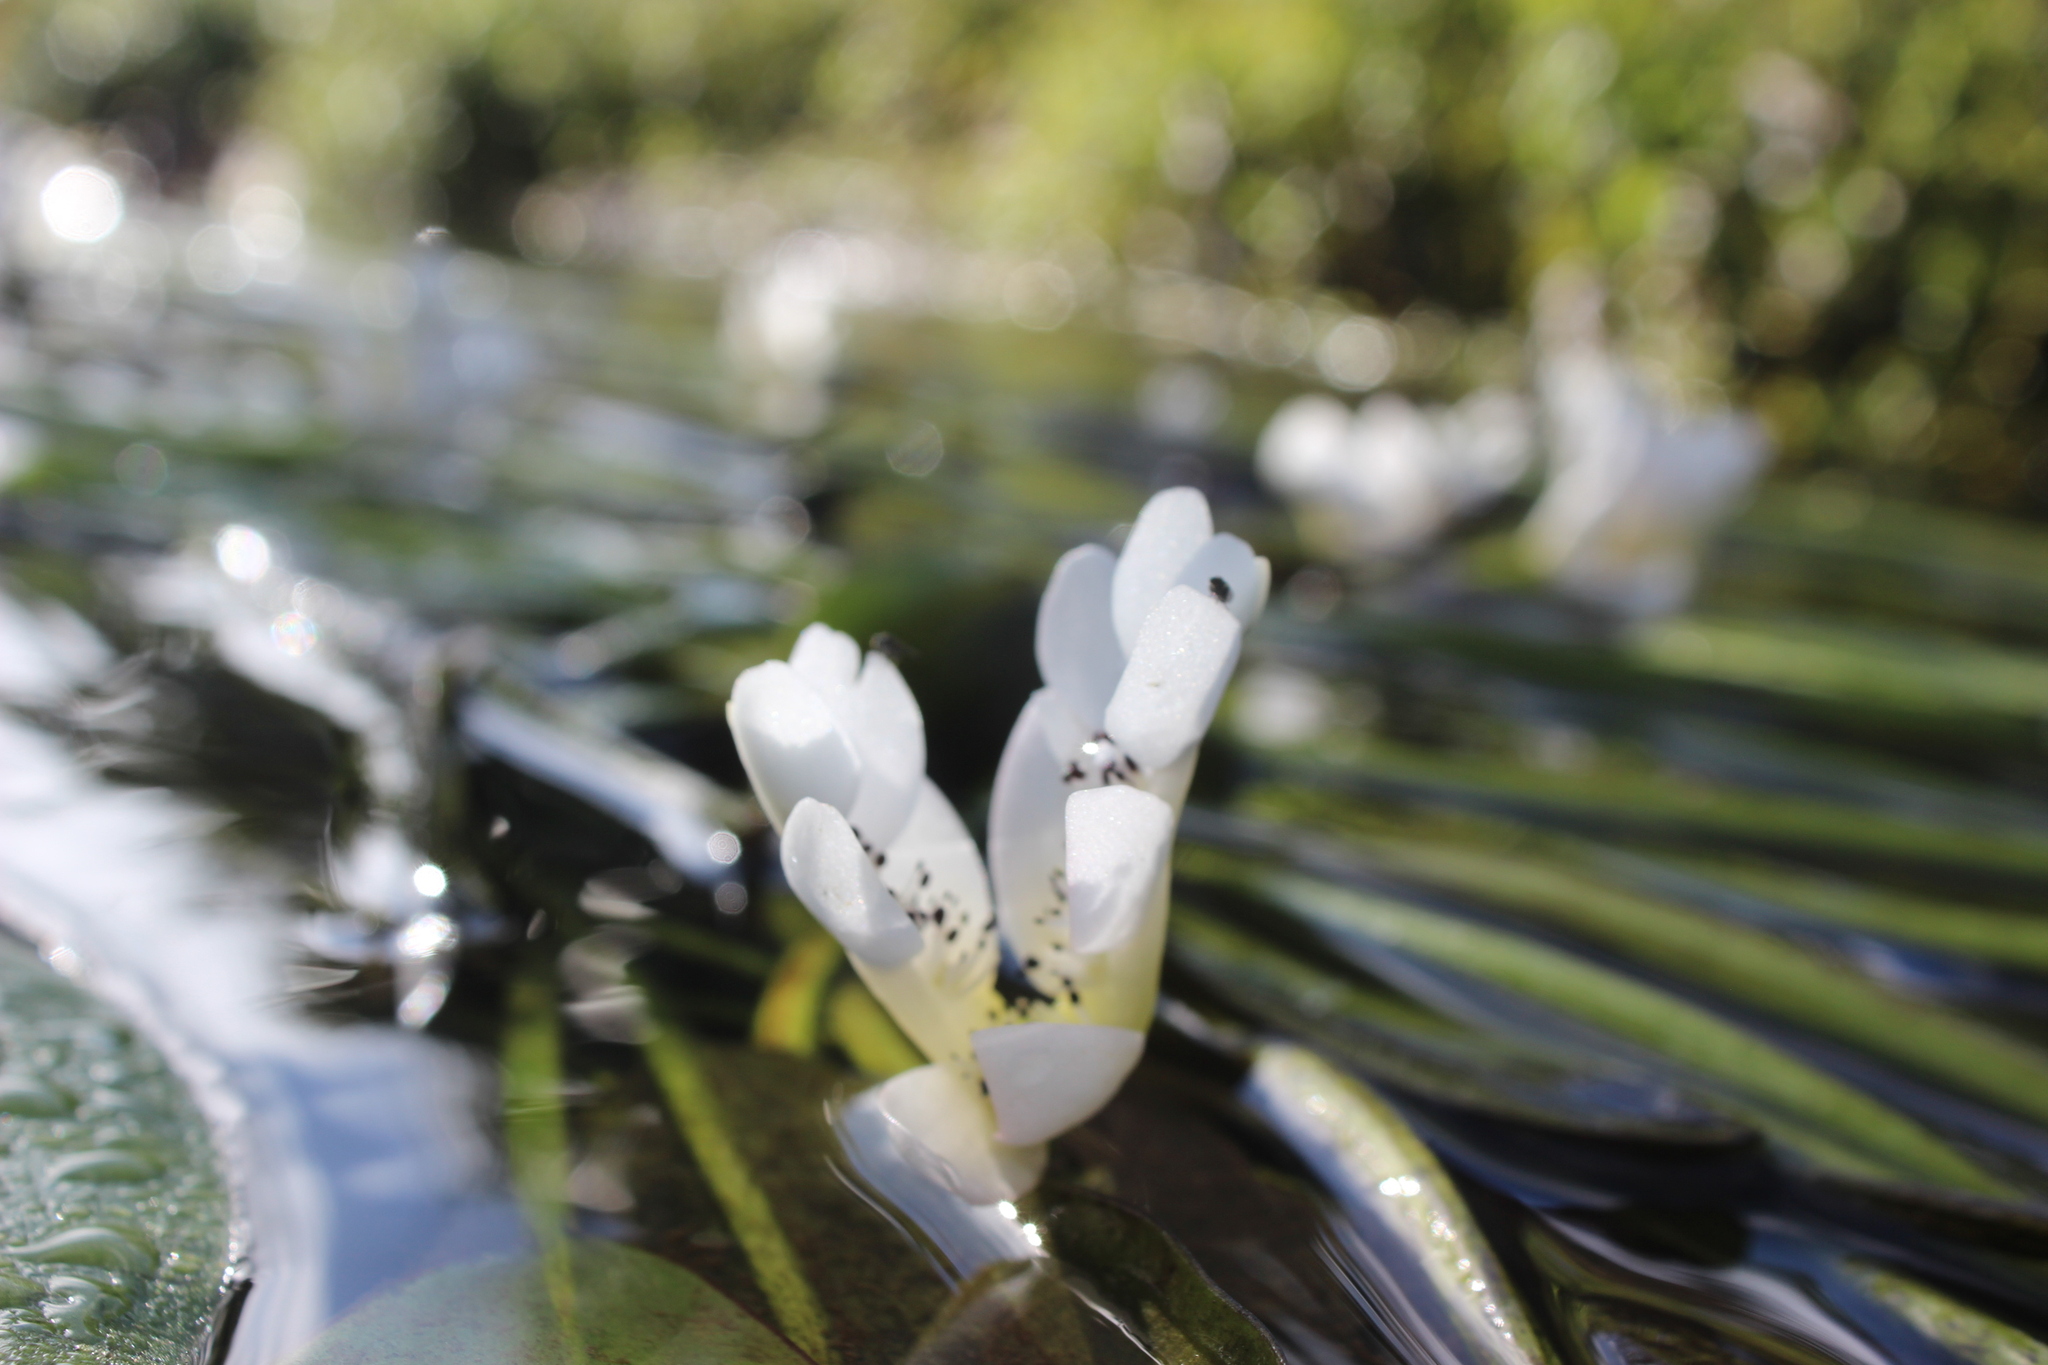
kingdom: Plantae
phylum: Tracheophyta
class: Liliopsida
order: Alismatales
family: Aponogetonaceae
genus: Aponogeton
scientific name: Aponogeton distachyos
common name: Cape-pondweed
